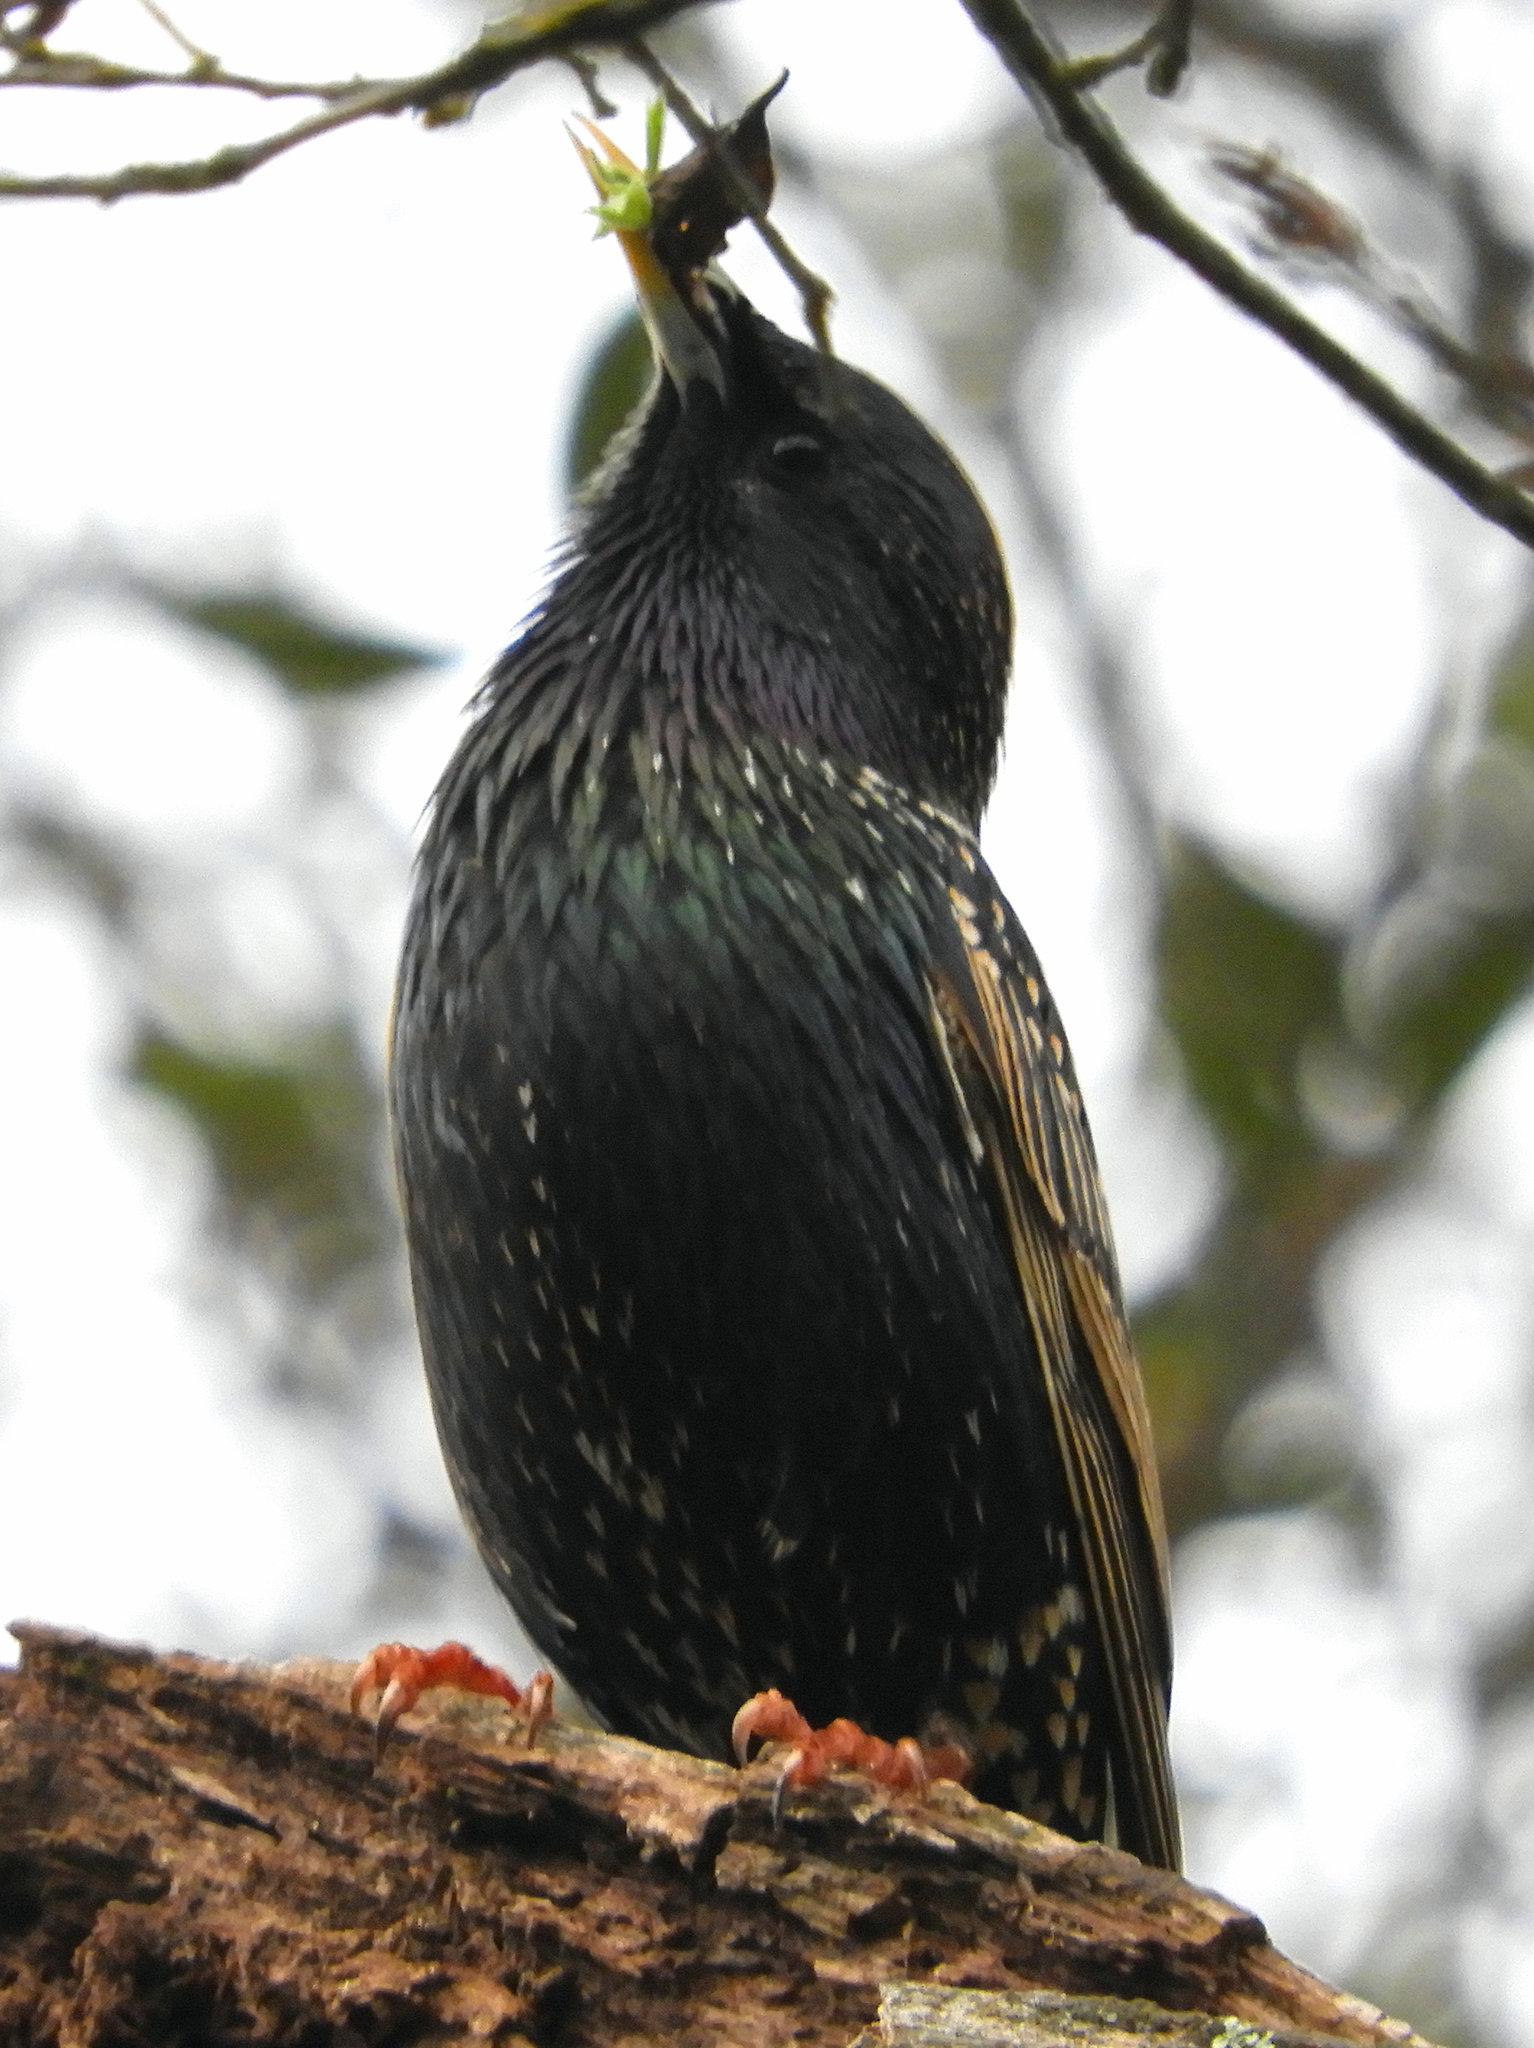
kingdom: Animalia
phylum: Chordata
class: Aves
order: Passeriformes
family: Sturnidae
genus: Sturnus
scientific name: Sturnus vulgaris
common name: Common starling
